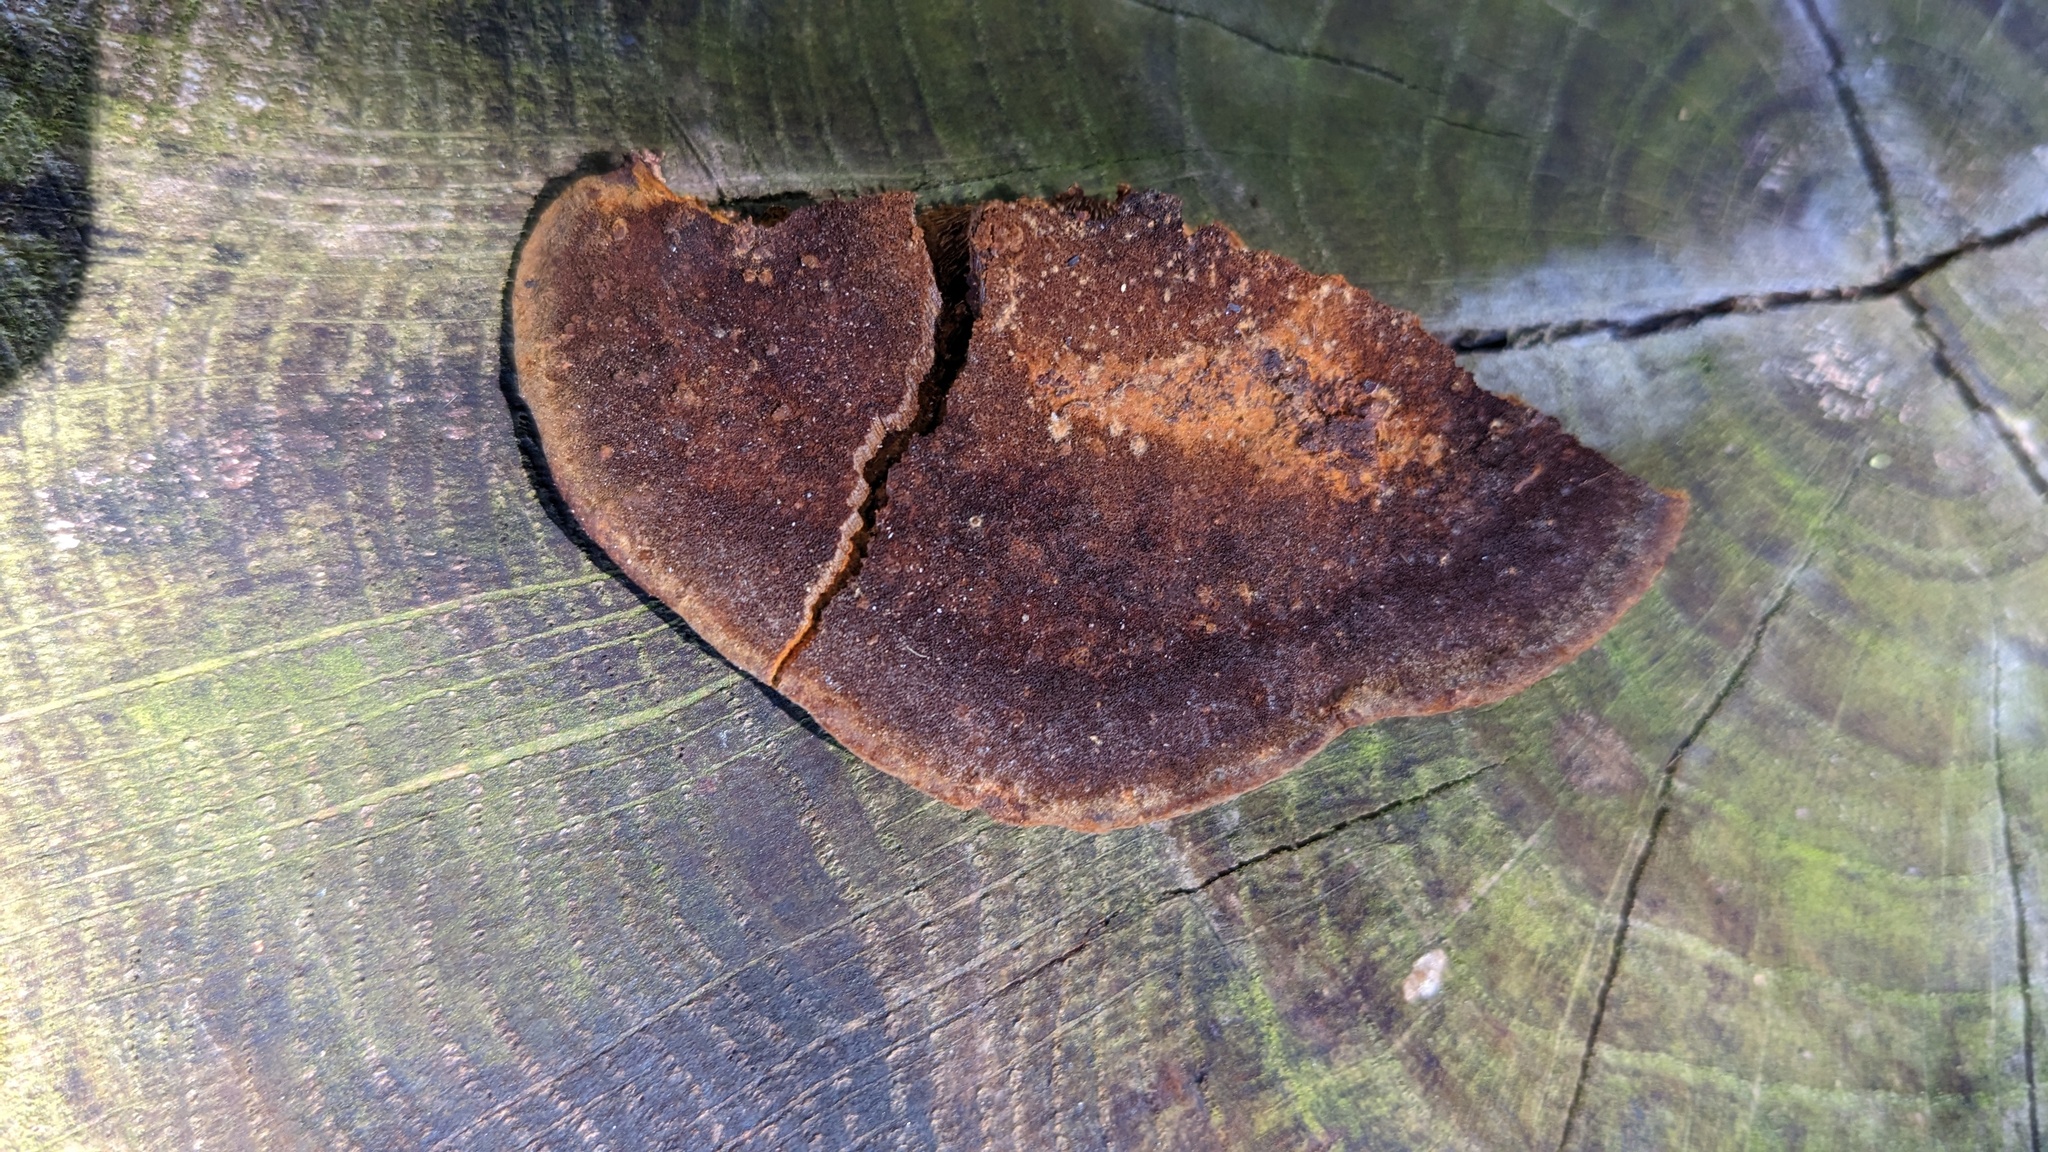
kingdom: Fungi
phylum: Basidiomycota
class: Agaricomycetes
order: Hymenochaetales
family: Hymenochaetaceae
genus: Phellinus
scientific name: Phellinus gilvus
